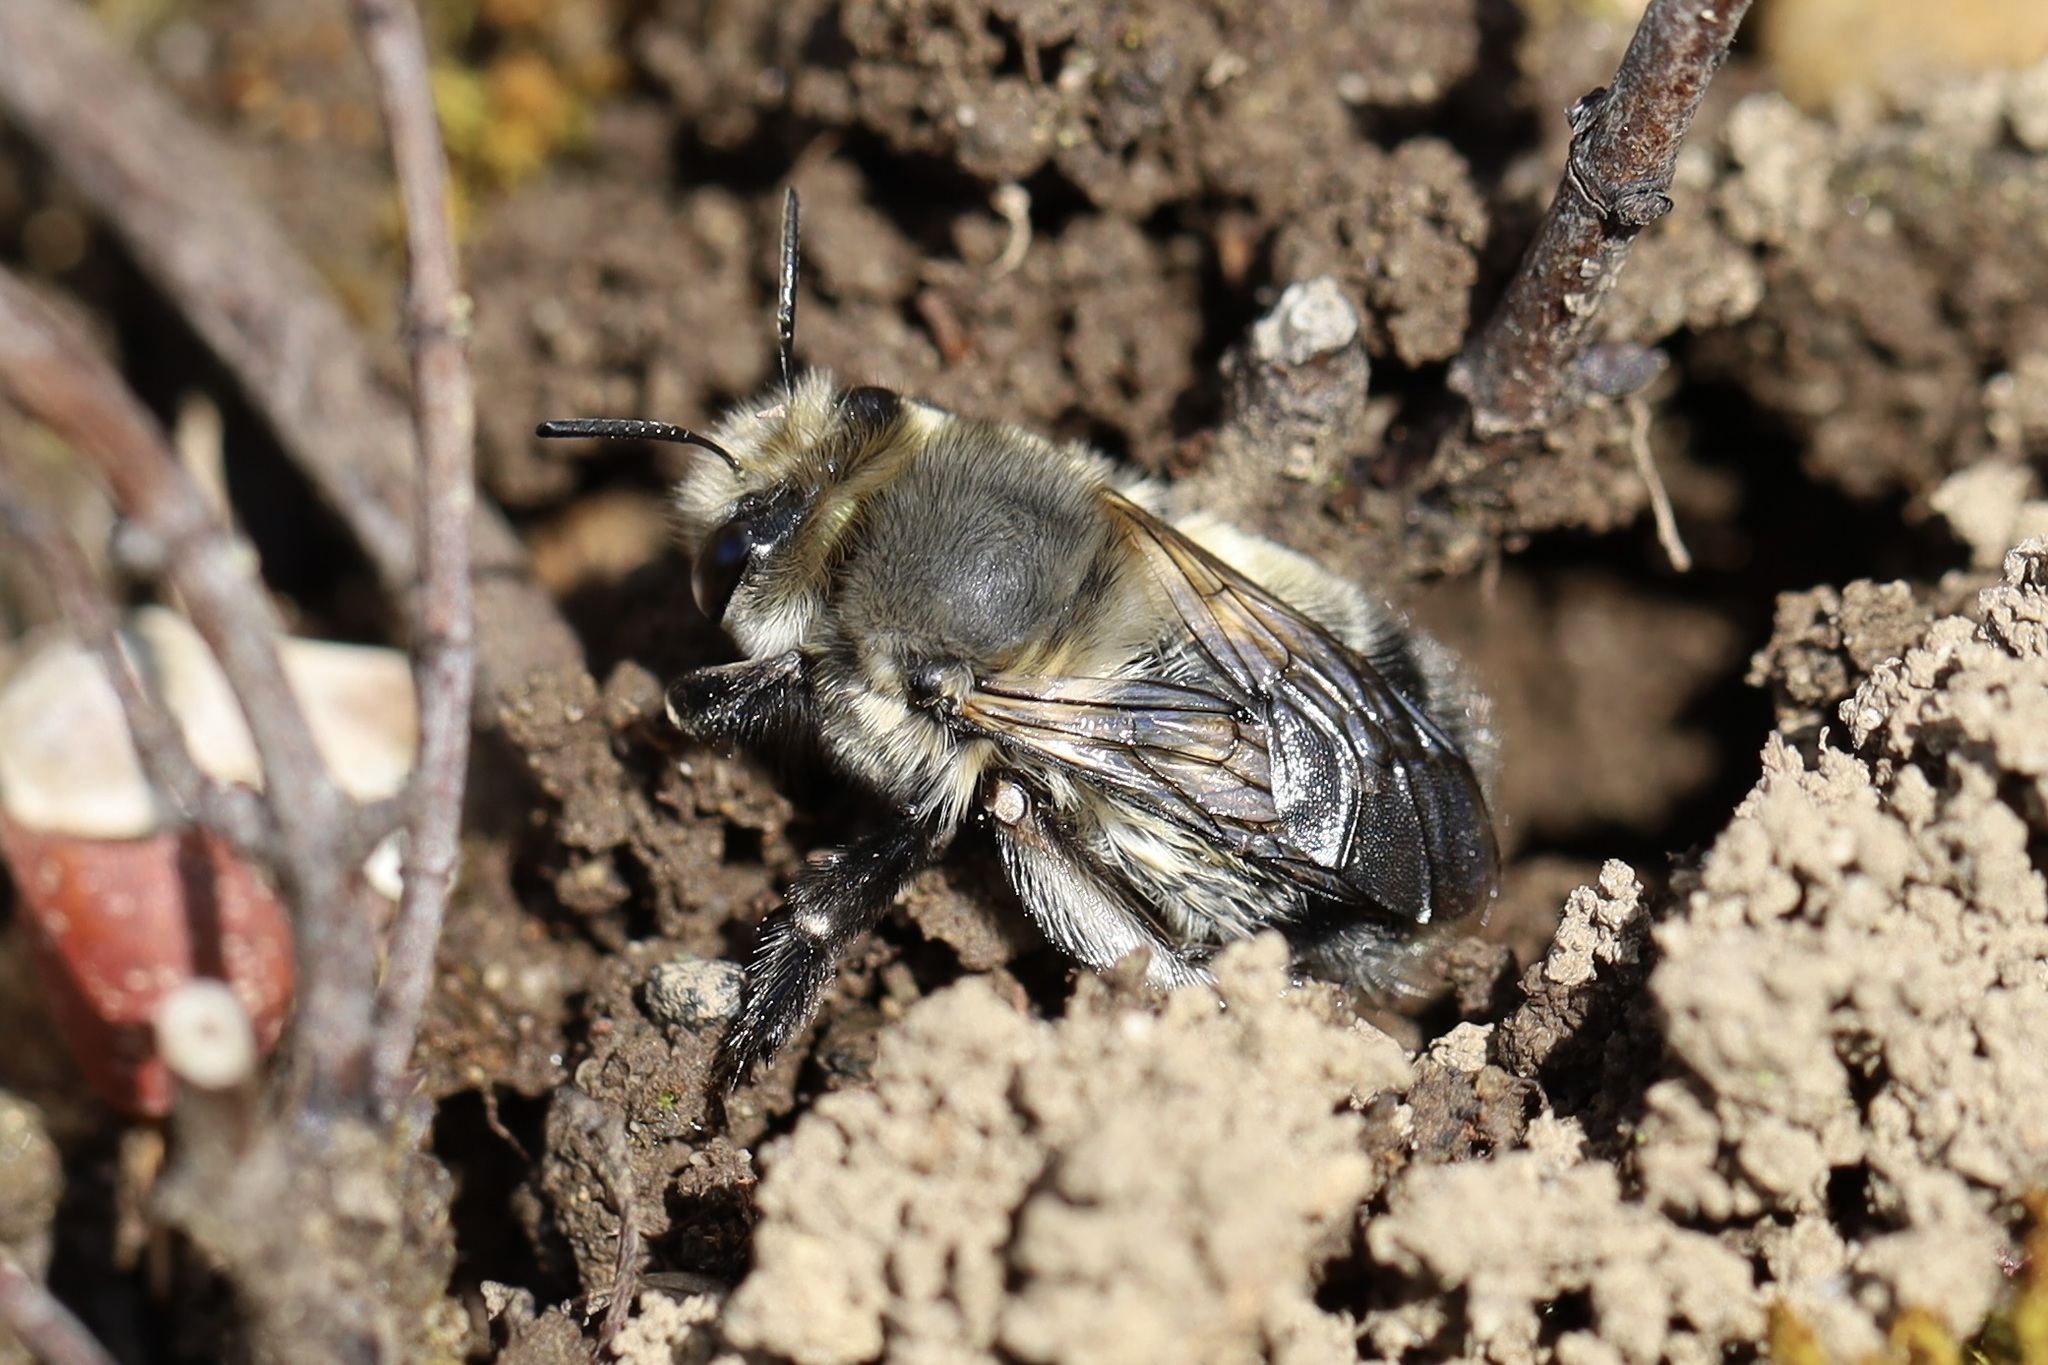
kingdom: Animalia
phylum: Arthropoda
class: Insecta
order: Hymenoptera
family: Apidae
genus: Anthophora
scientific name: Anthophora pacifica
